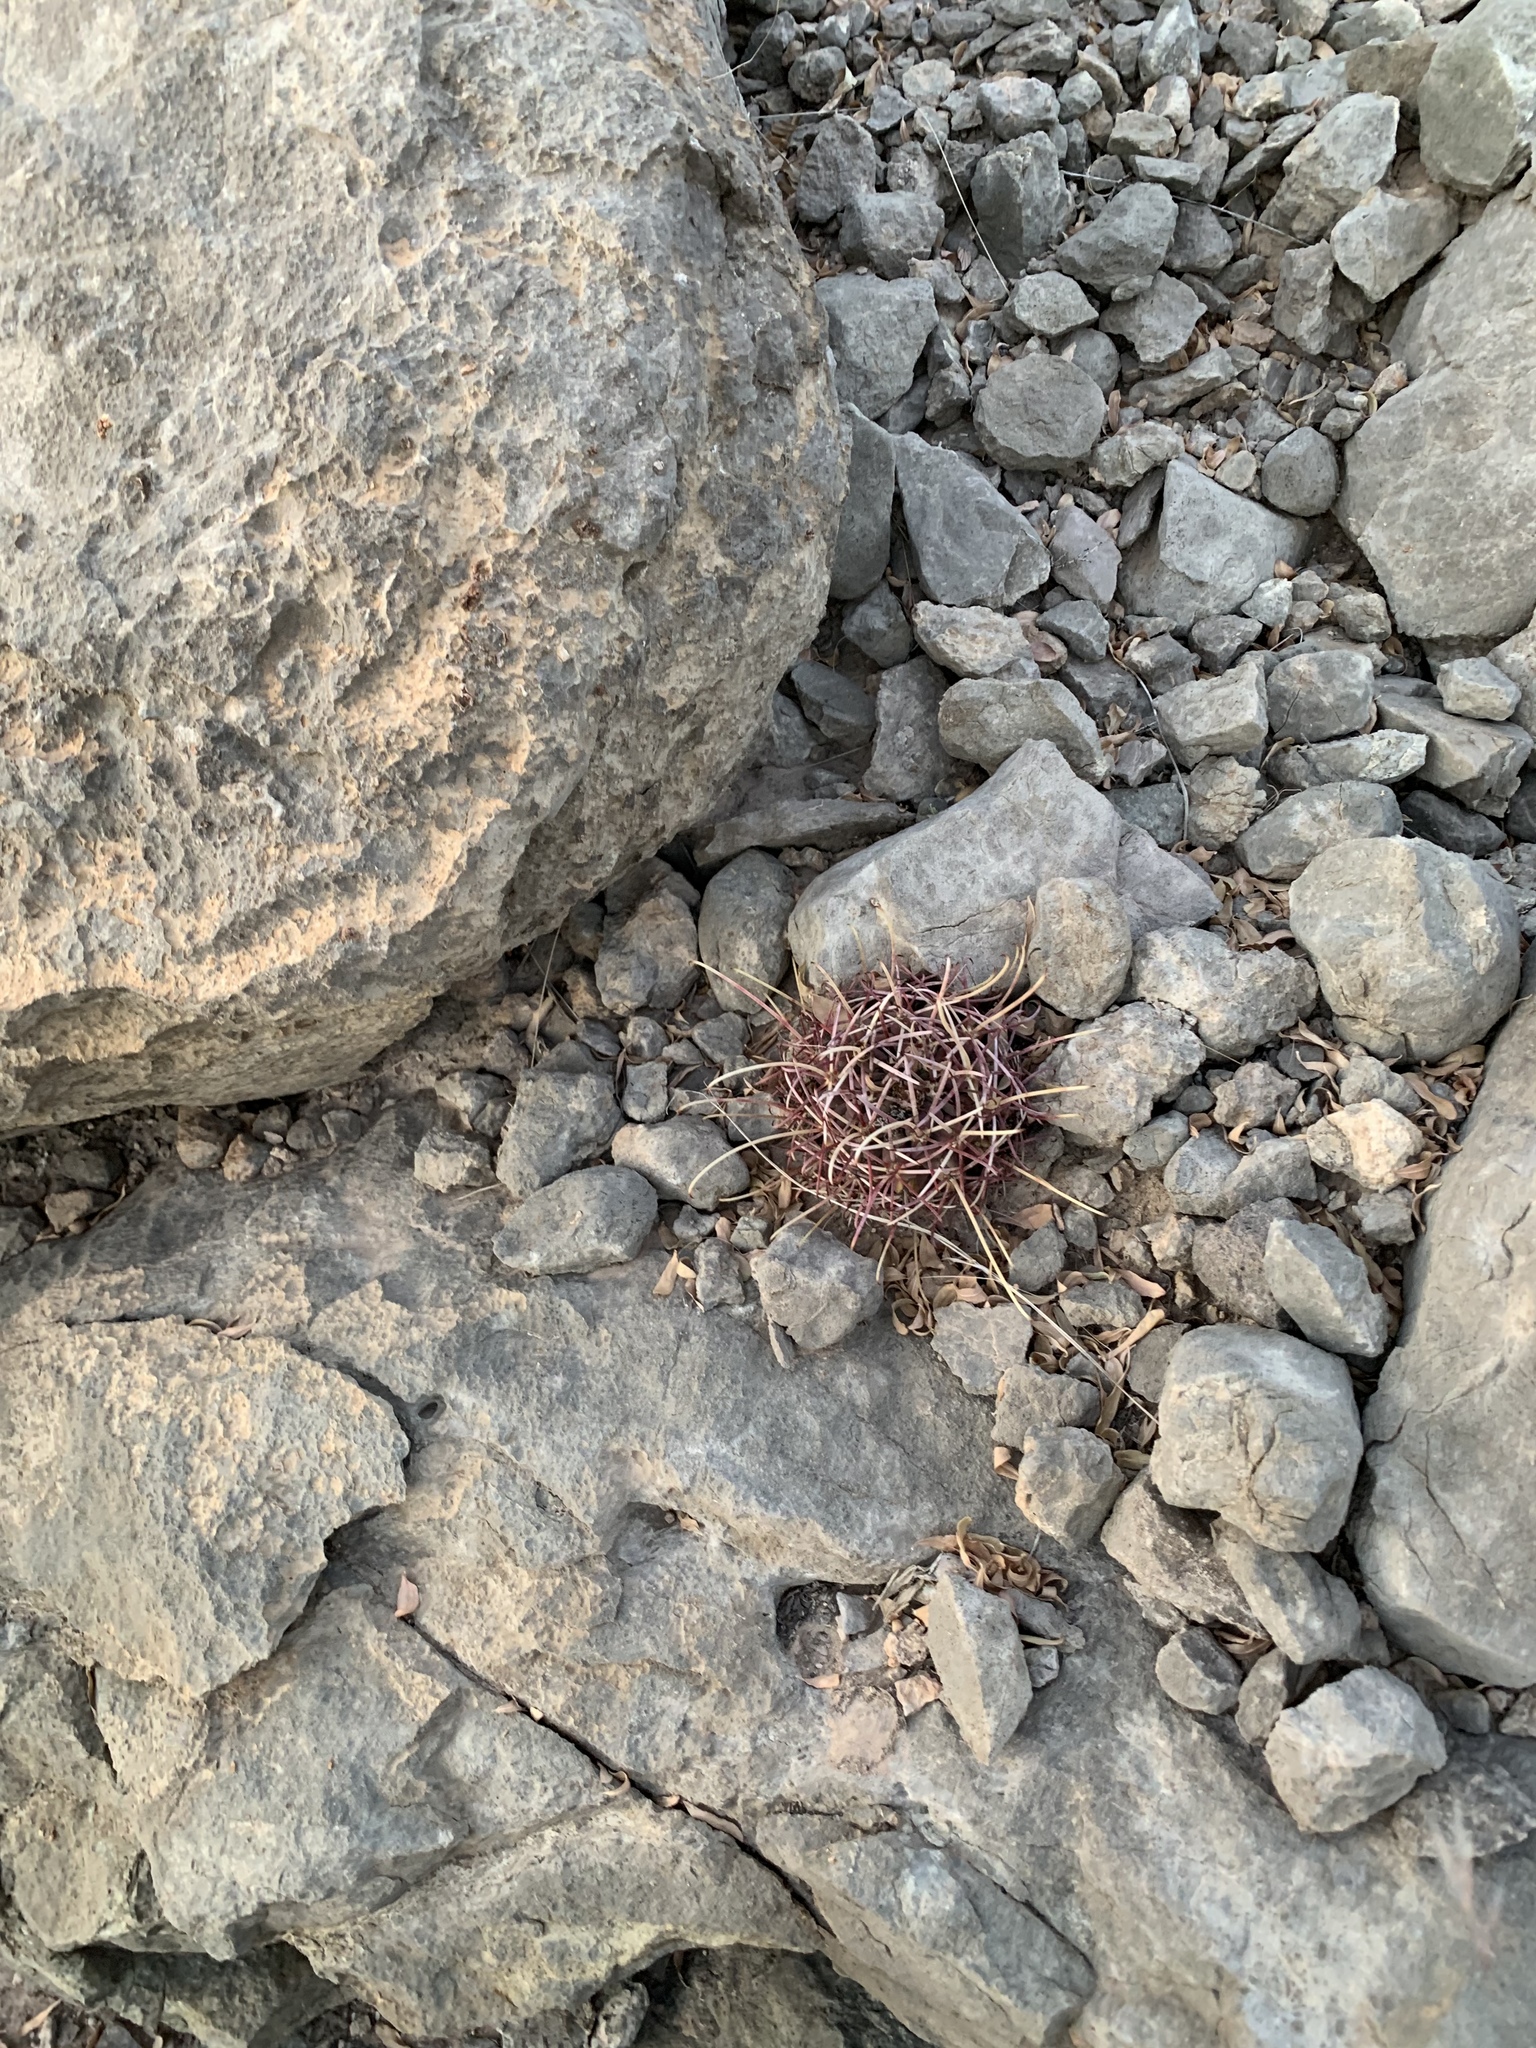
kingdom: Plantae
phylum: Tracheophyta
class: Magnoliopsida
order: Caryophyllales
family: Cactaceae
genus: Ferocactus
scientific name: Ferocactus uncinatus
